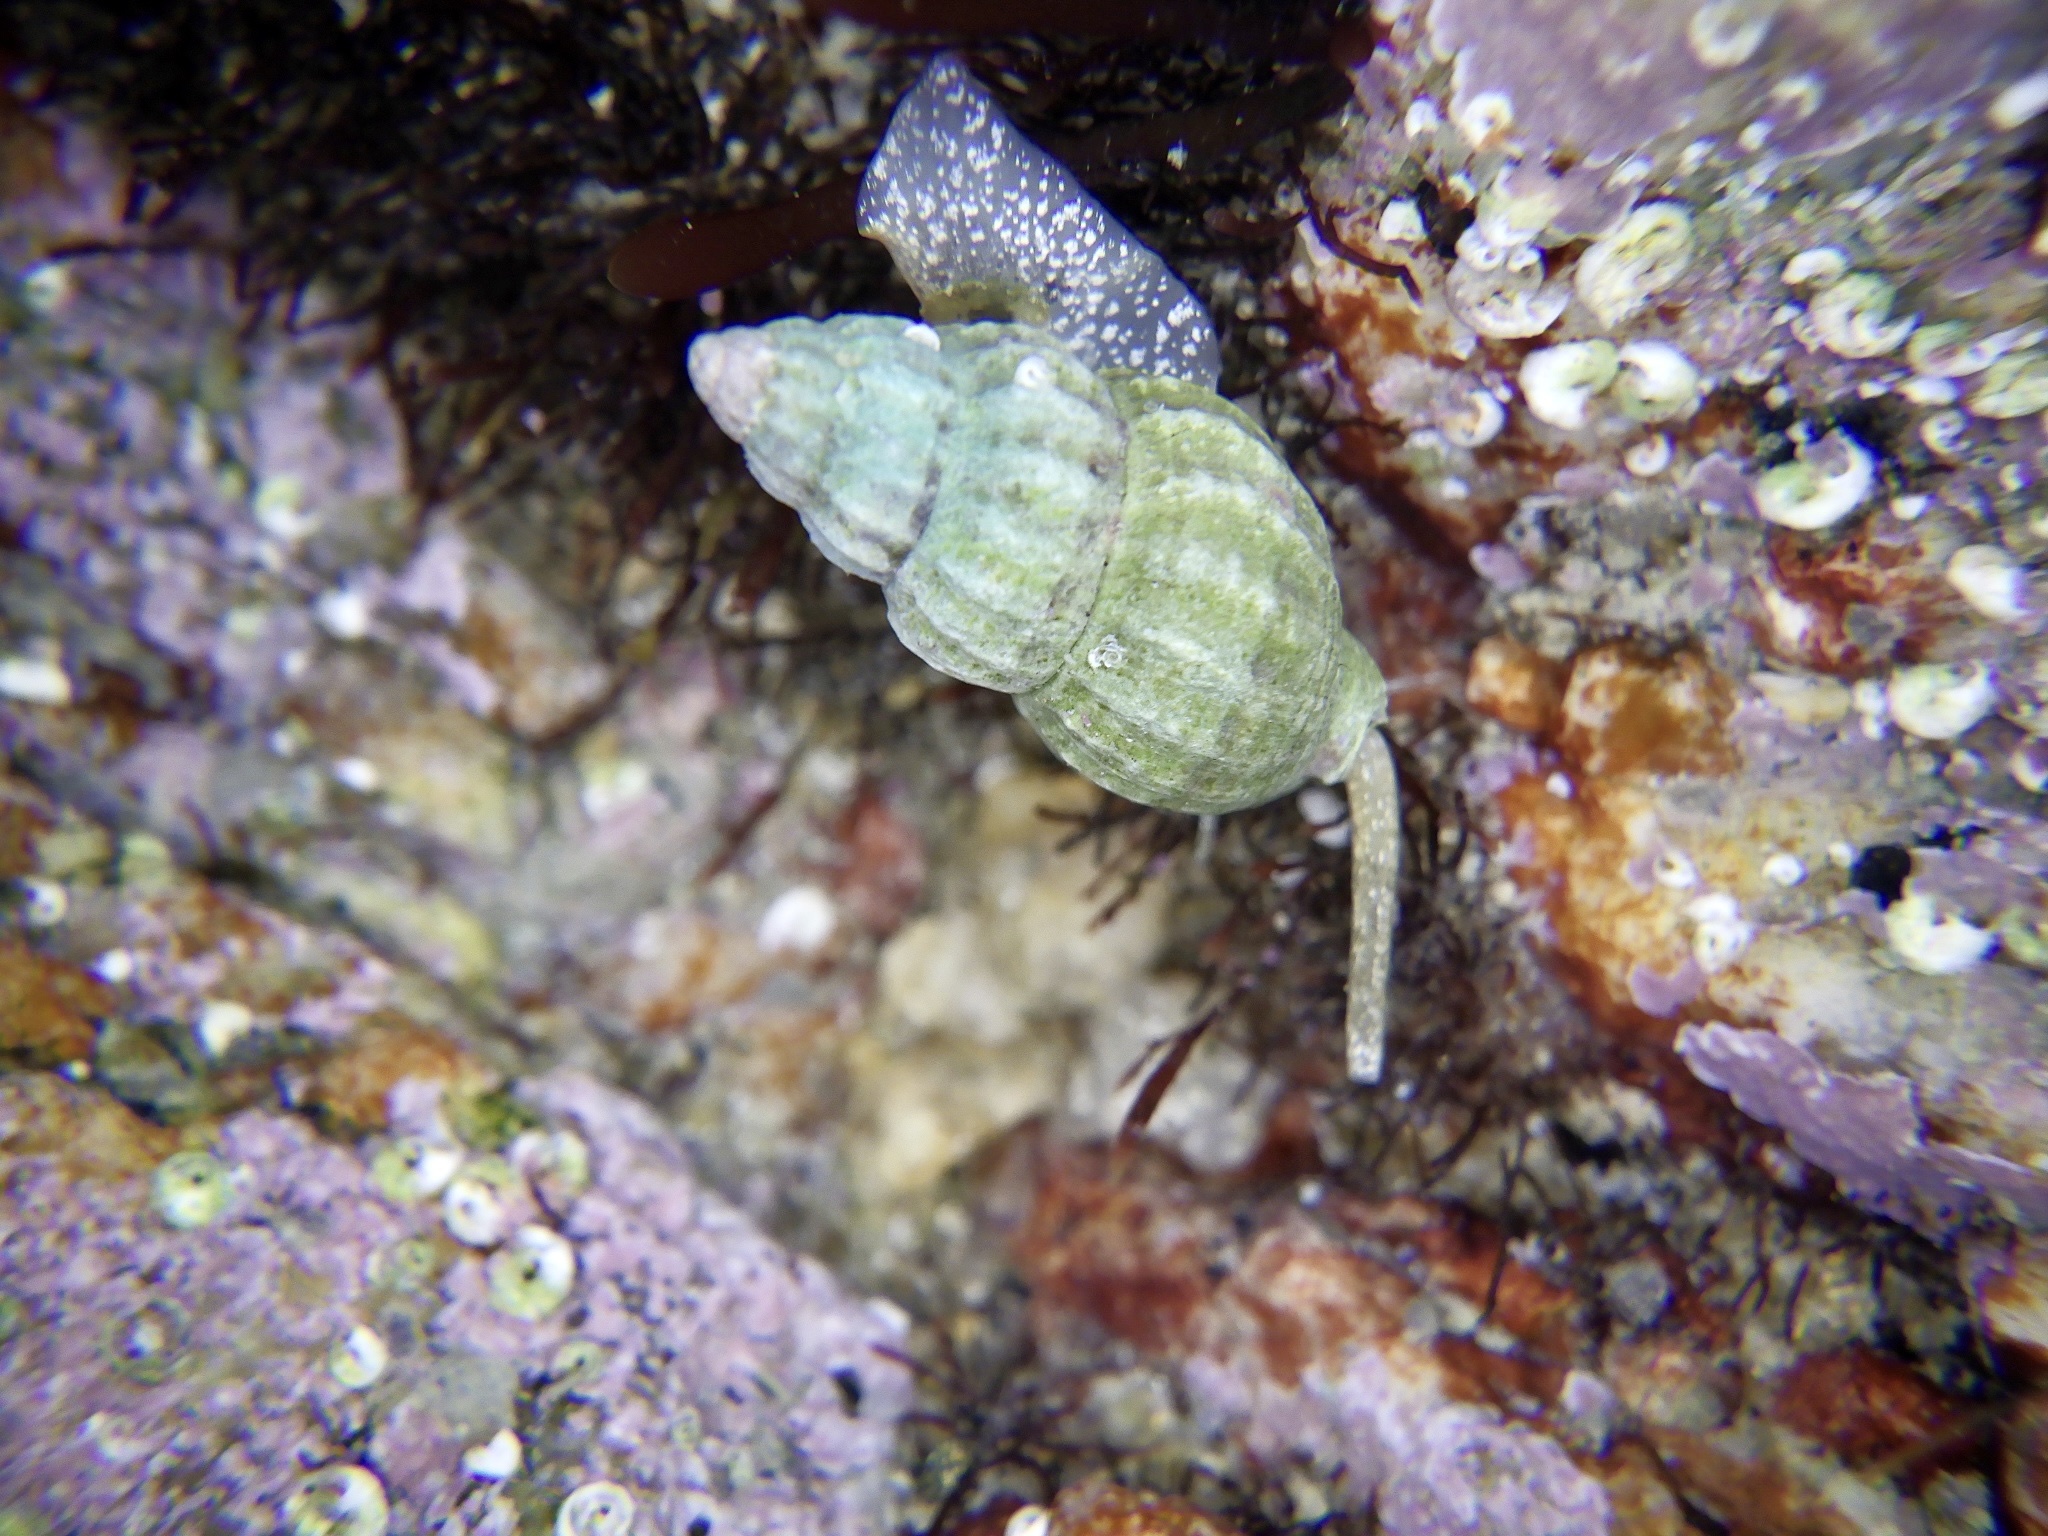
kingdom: Animalia
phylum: Mollusca
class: Gastropoda
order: Neogastropoda
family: Nassariidae
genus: Nassarius
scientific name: Nassarius fraterculus
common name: Japanese nassa
